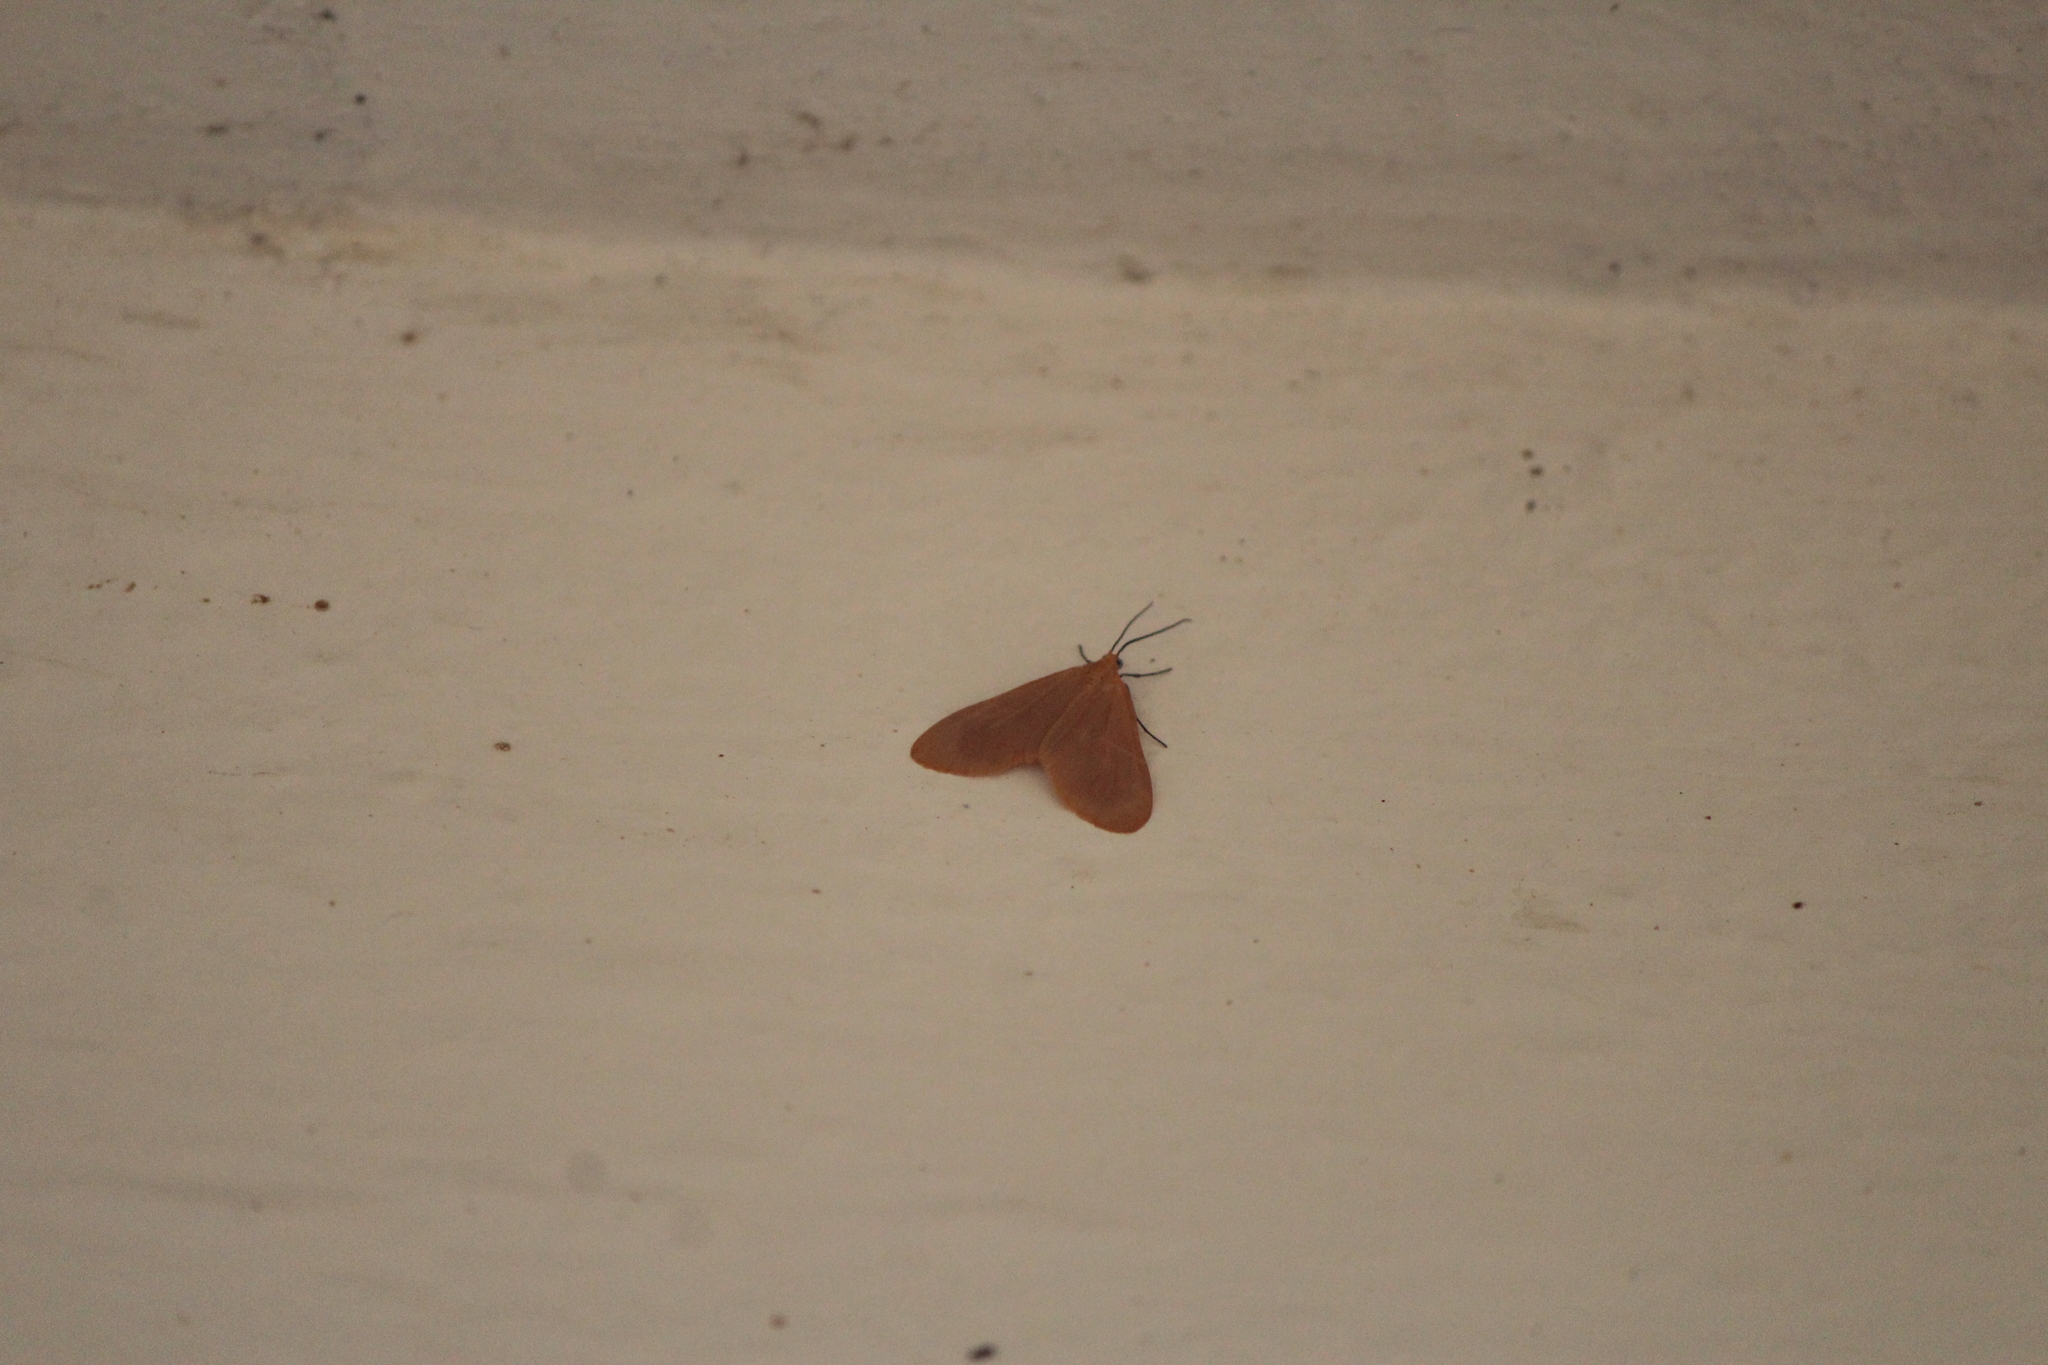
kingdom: Animalia
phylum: Arthropoda
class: Insecta
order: Lepidoptera
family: Geometridae
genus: Eubaphe
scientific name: Eubaphe unicolor
